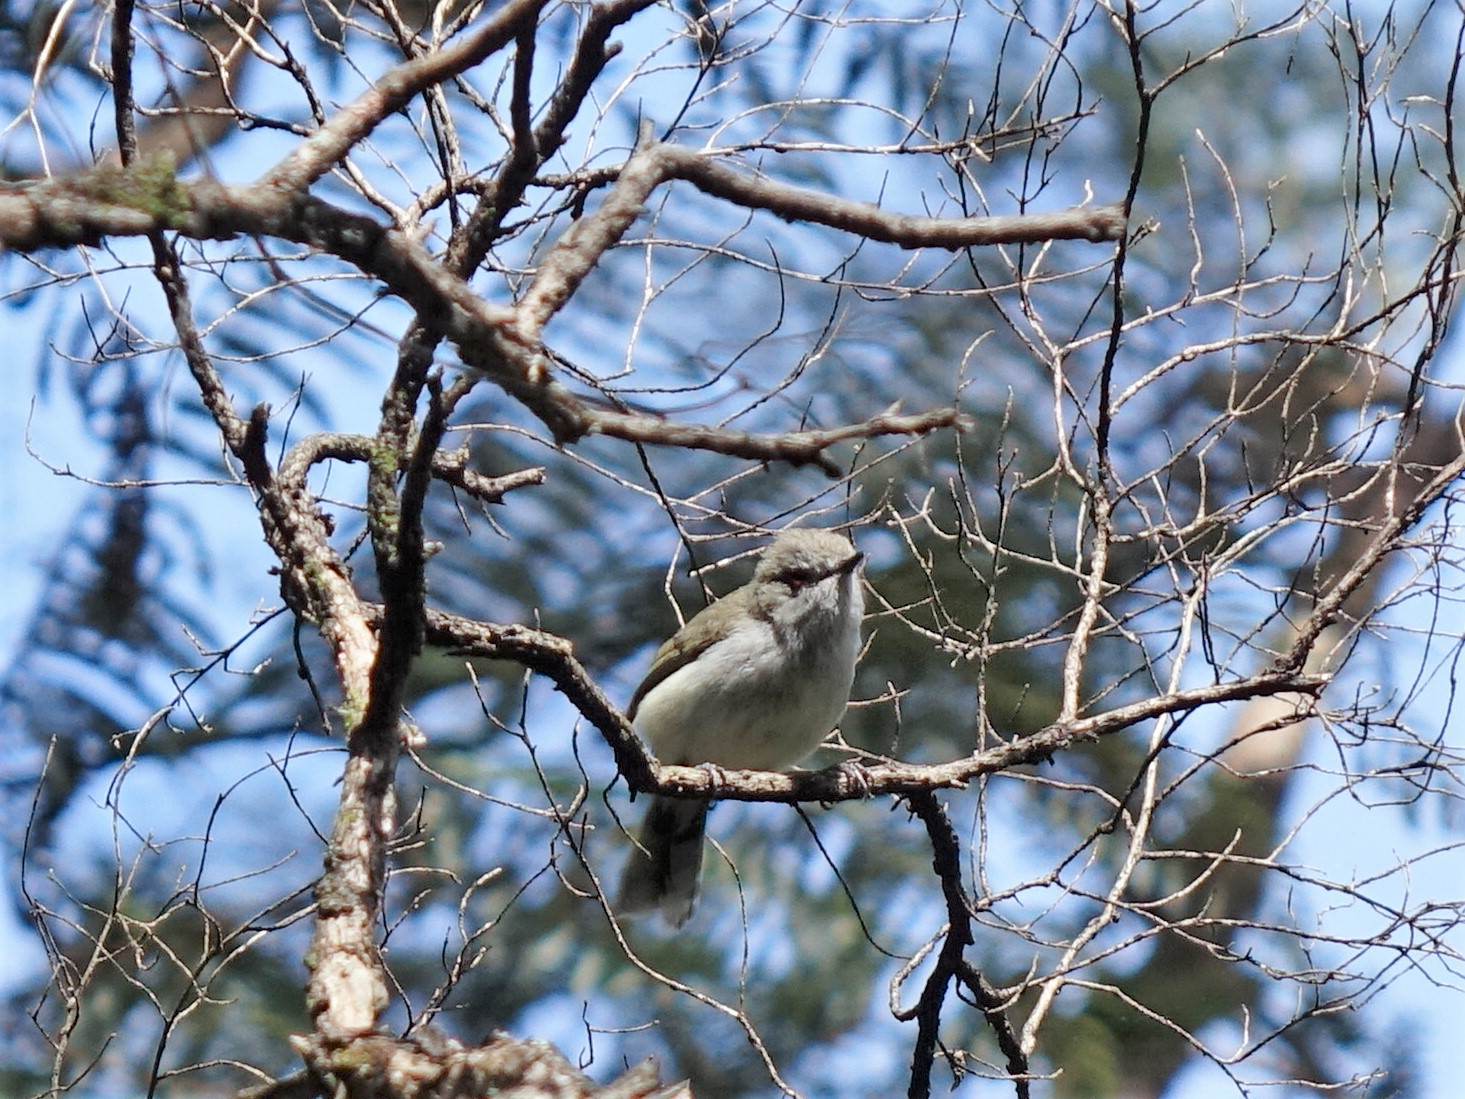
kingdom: Animalia
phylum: Chordata
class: Aves
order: Passeriformes
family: Acanthizidae
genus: Gerygone
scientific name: Gerygone igata
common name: Grey gerygone
